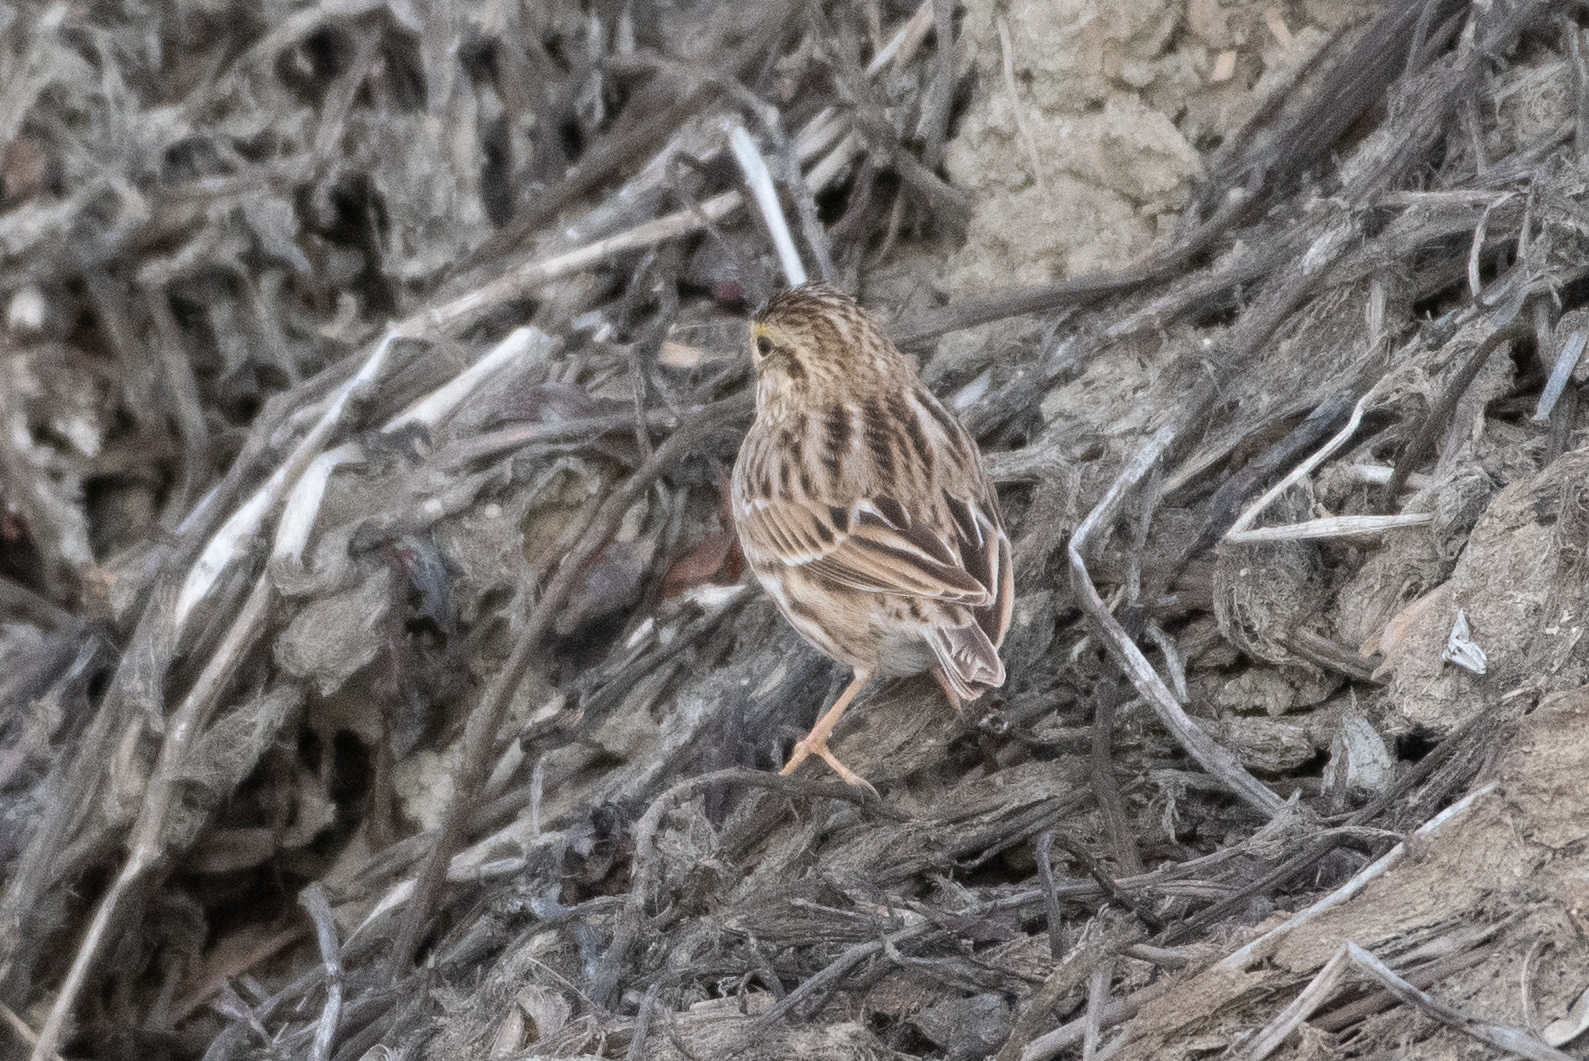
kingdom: Animalia
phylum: Chordata
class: Aves
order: Passeriformes
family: Passerellidae
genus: Passerculus
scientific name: Passerculus sandwichensis
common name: Savannah sparrow
